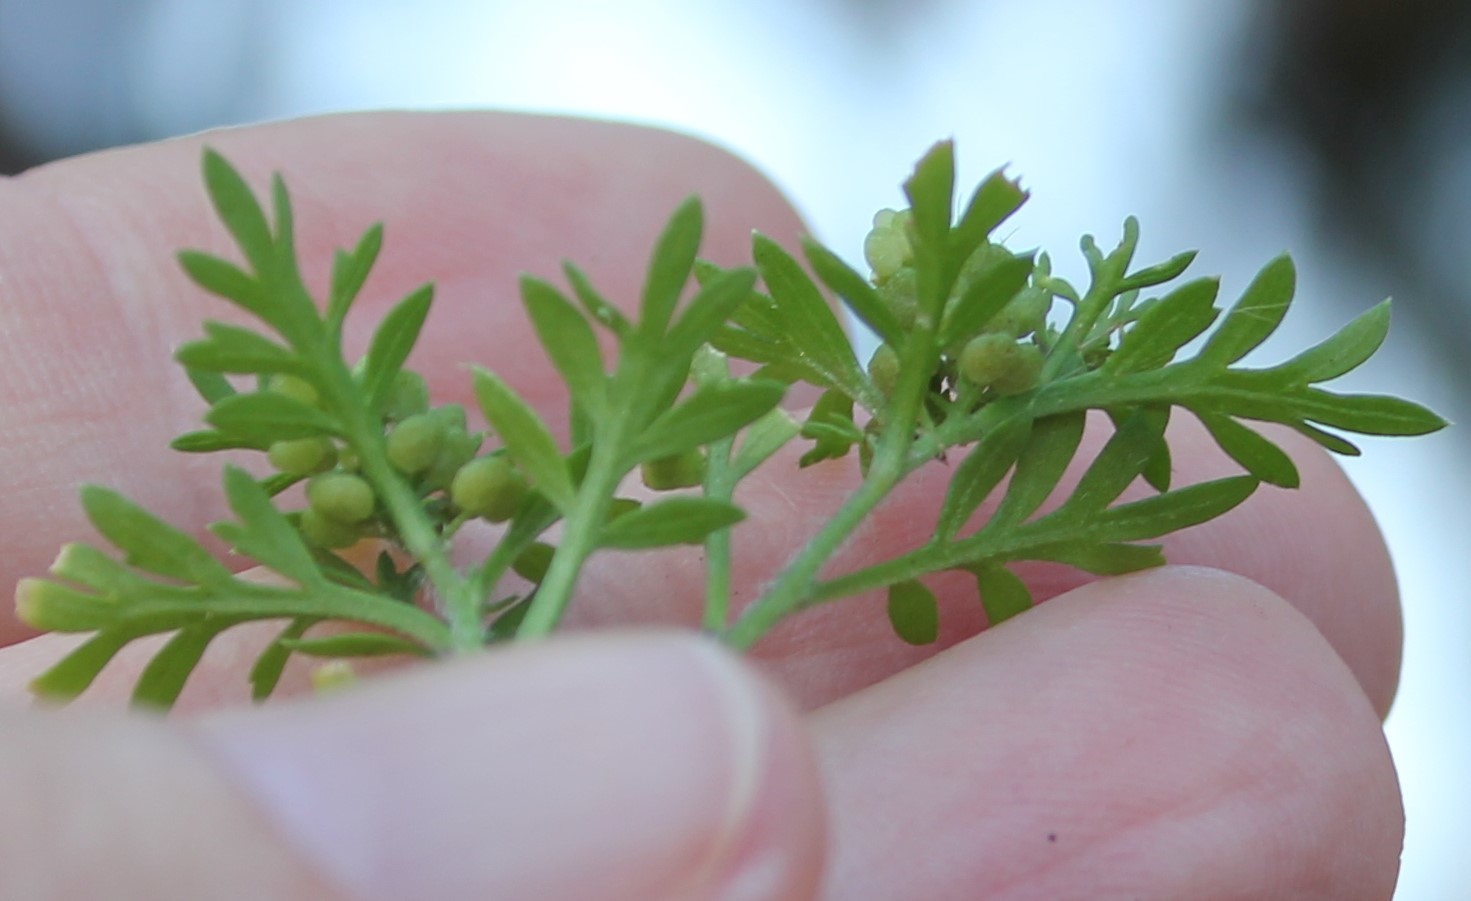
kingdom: Plantae
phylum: Tracheophyta
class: Magnoliopsida
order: Brassicales
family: Brassicaceae
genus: Lepidium
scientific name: Lepidium didymum
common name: Lesser swinecress
